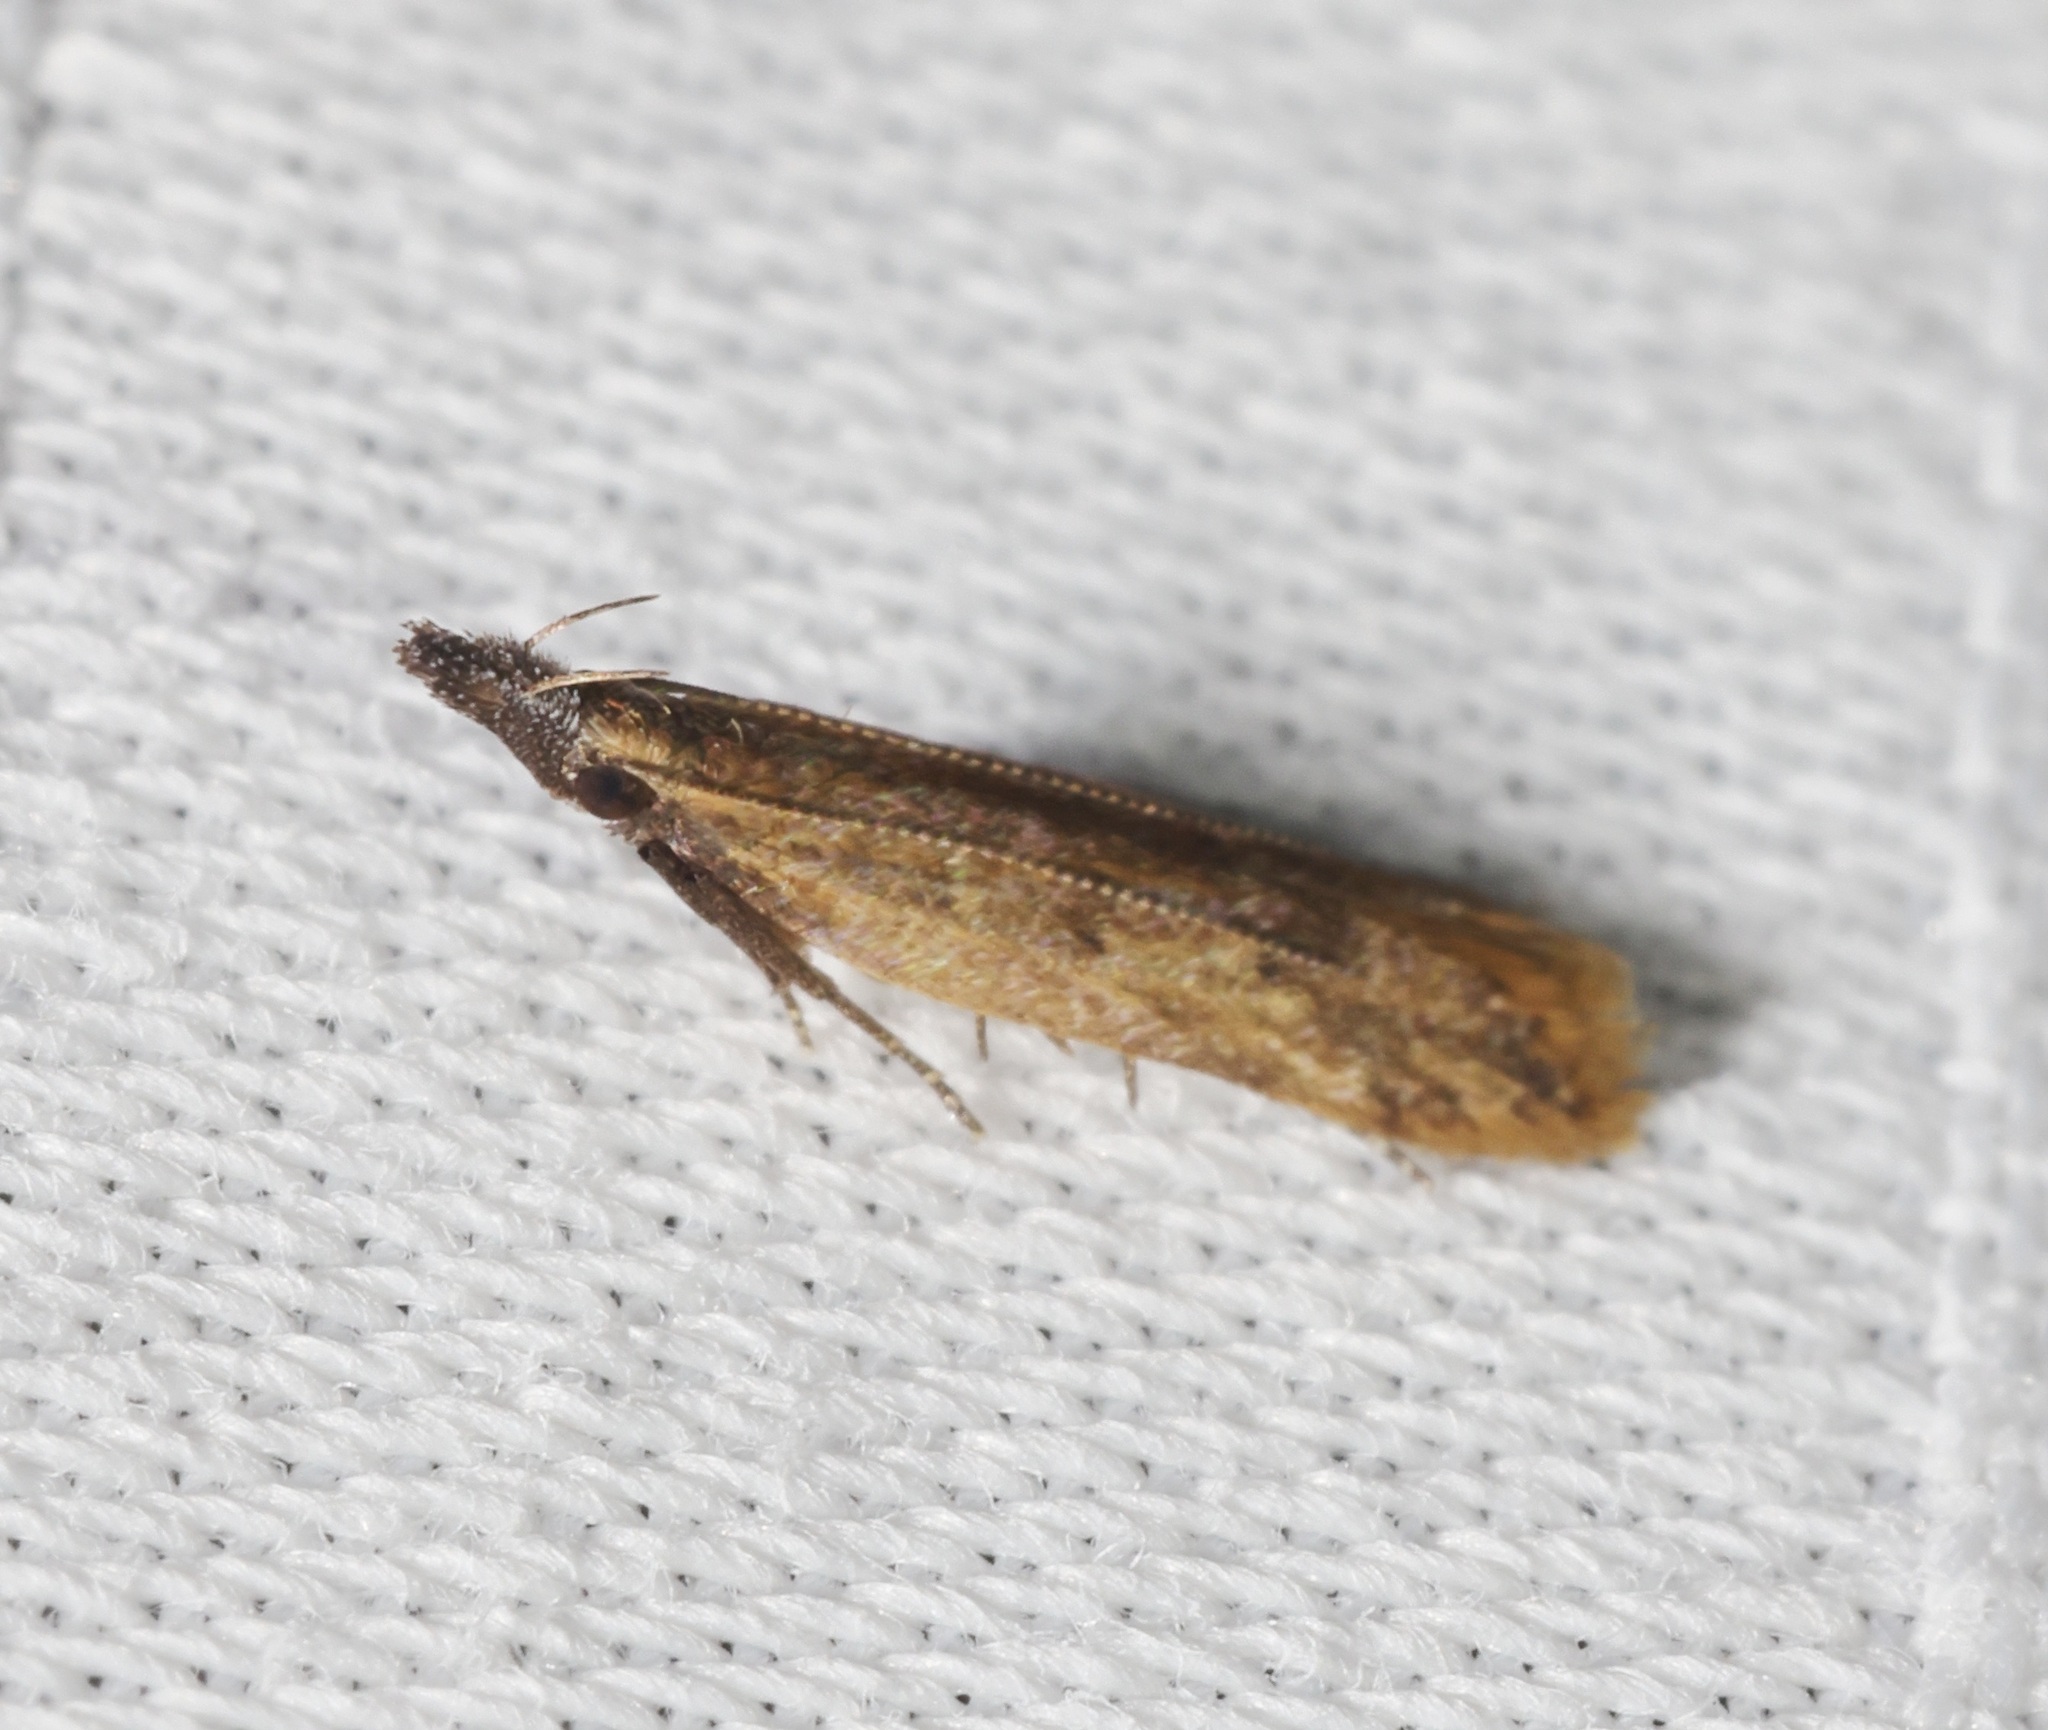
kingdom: Animalia
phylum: Arthropoda
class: Insecta
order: Lepidoptera
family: Gelechiidae
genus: Dichomeris
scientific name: Dichomeris anisacuminata
